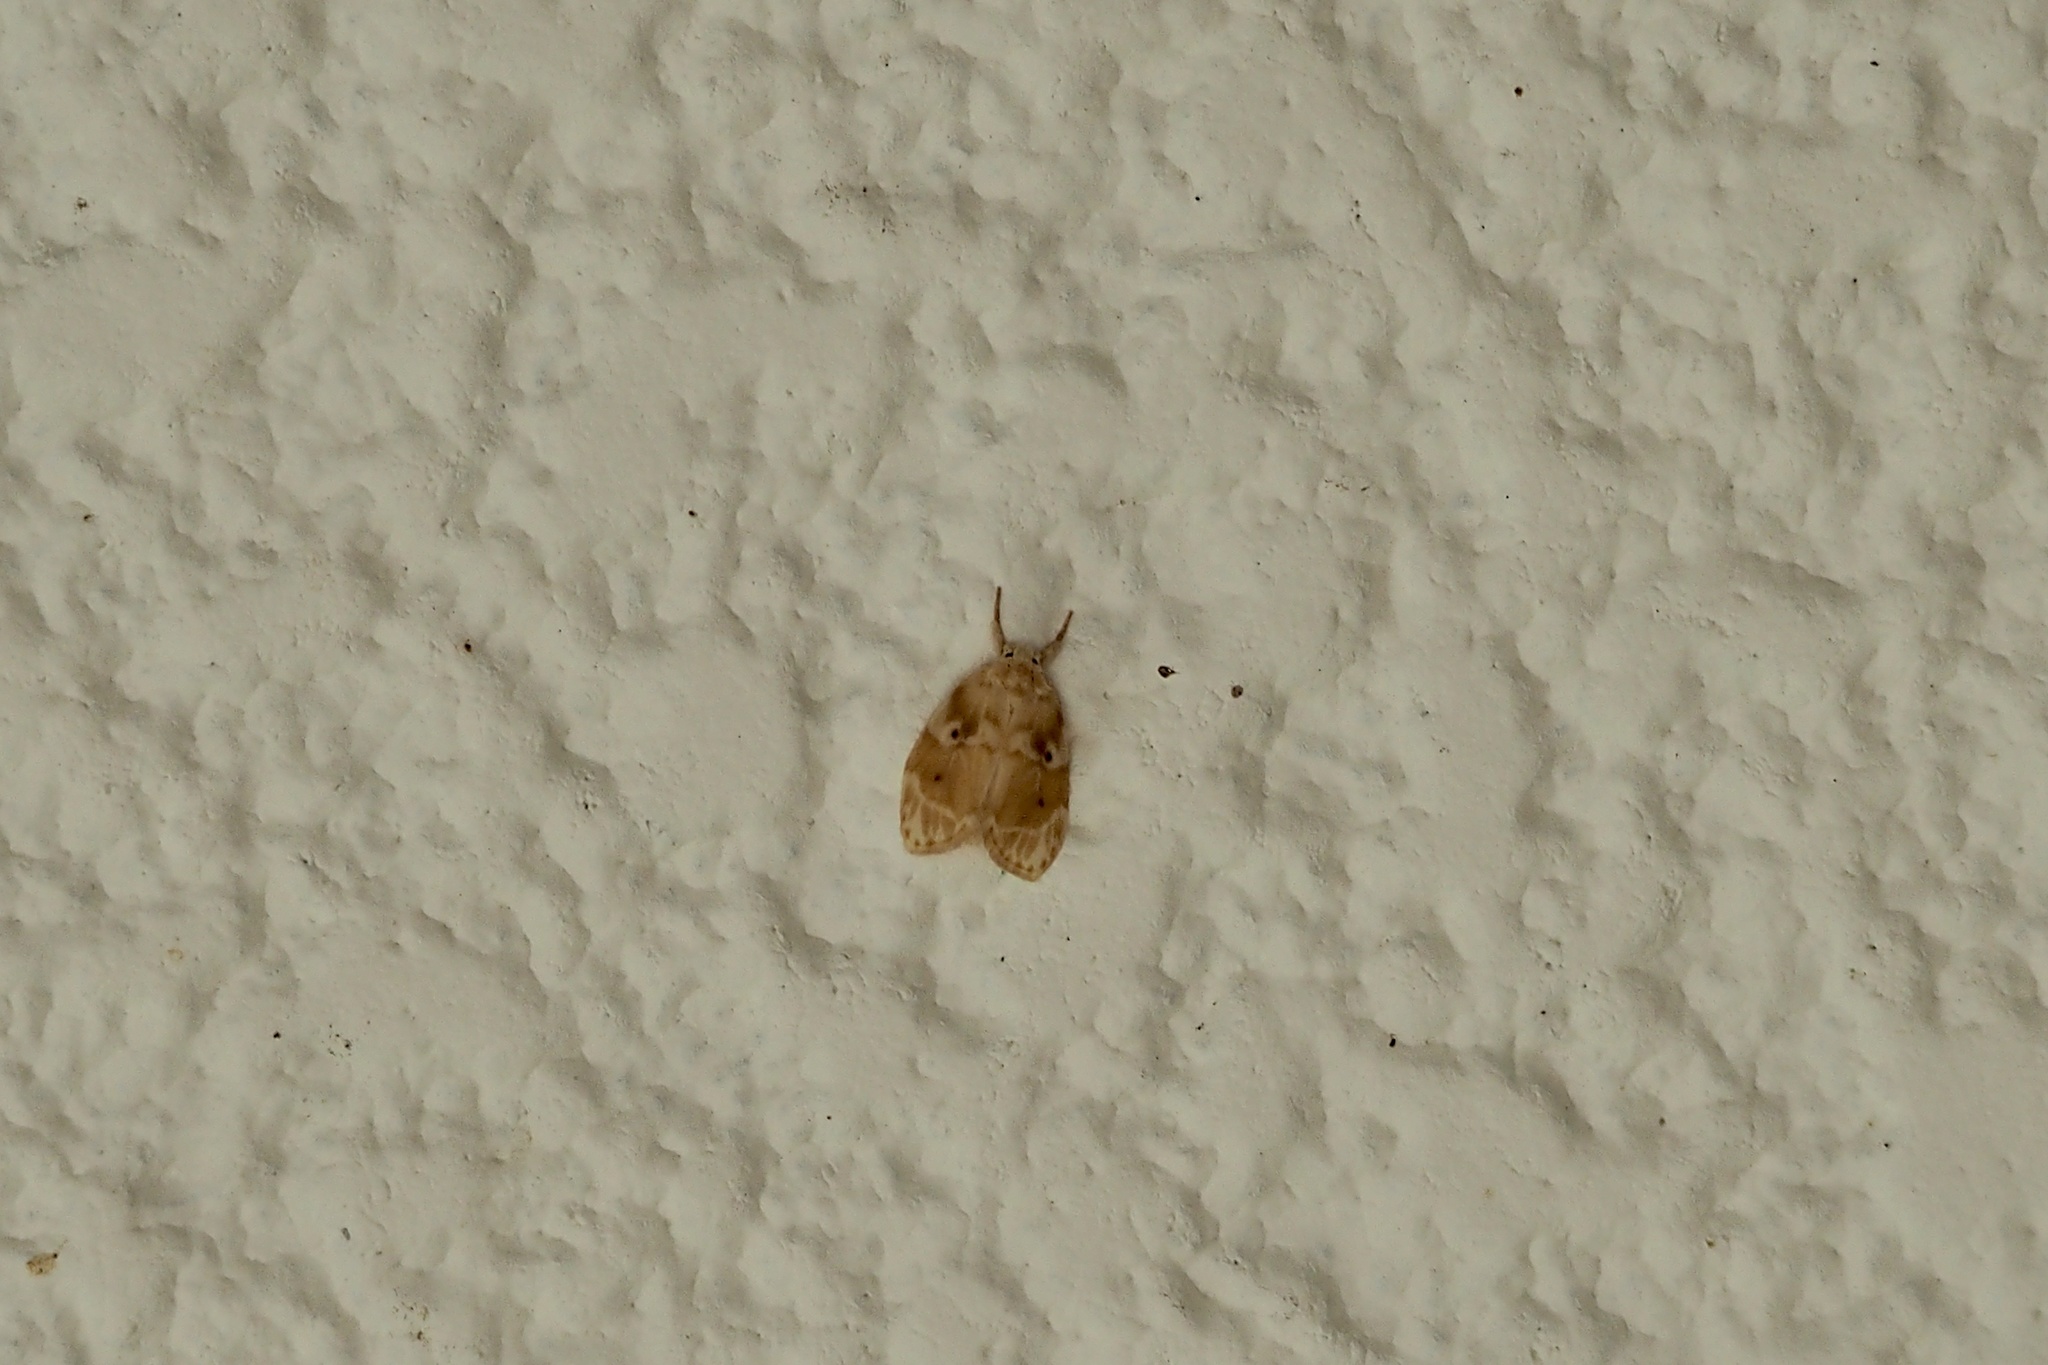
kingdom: Animalia
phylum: Arthropoda
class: Insecta
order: Lepidoptera
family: Erebidae
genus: Schistophleps
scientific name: Schistophleps bipuncta
